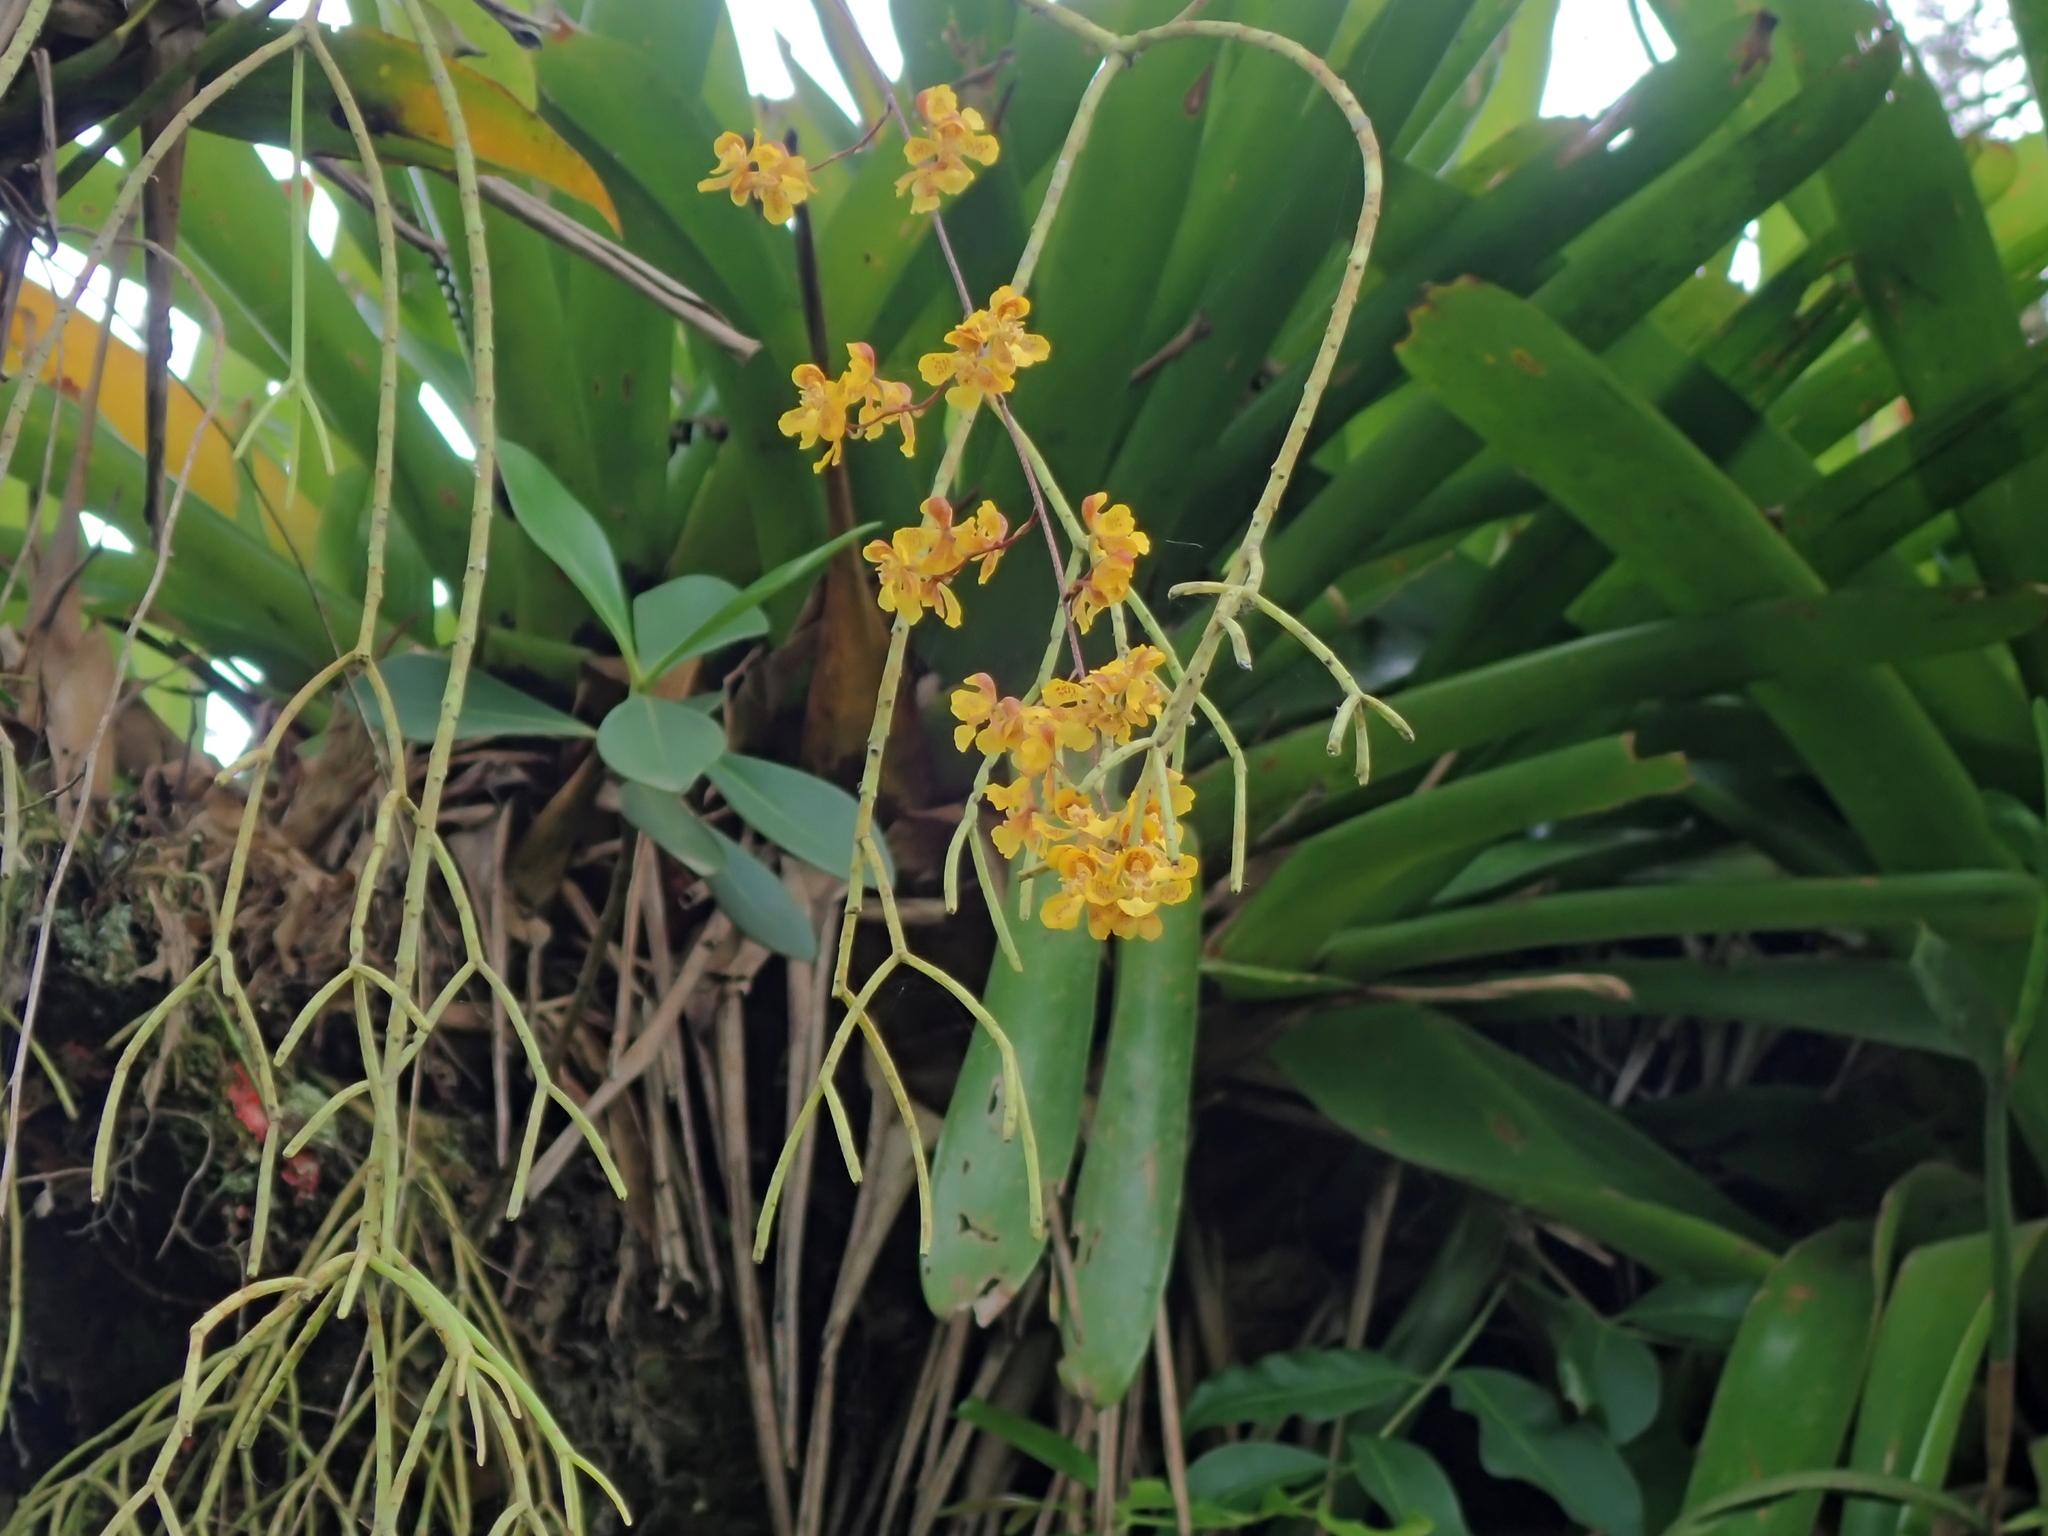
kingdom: Plantae
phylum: Tracheophyta
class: Liliopsida
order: Asparagales
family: Orchidaceae
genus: Gomesa
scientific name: Gomesa cornigera
